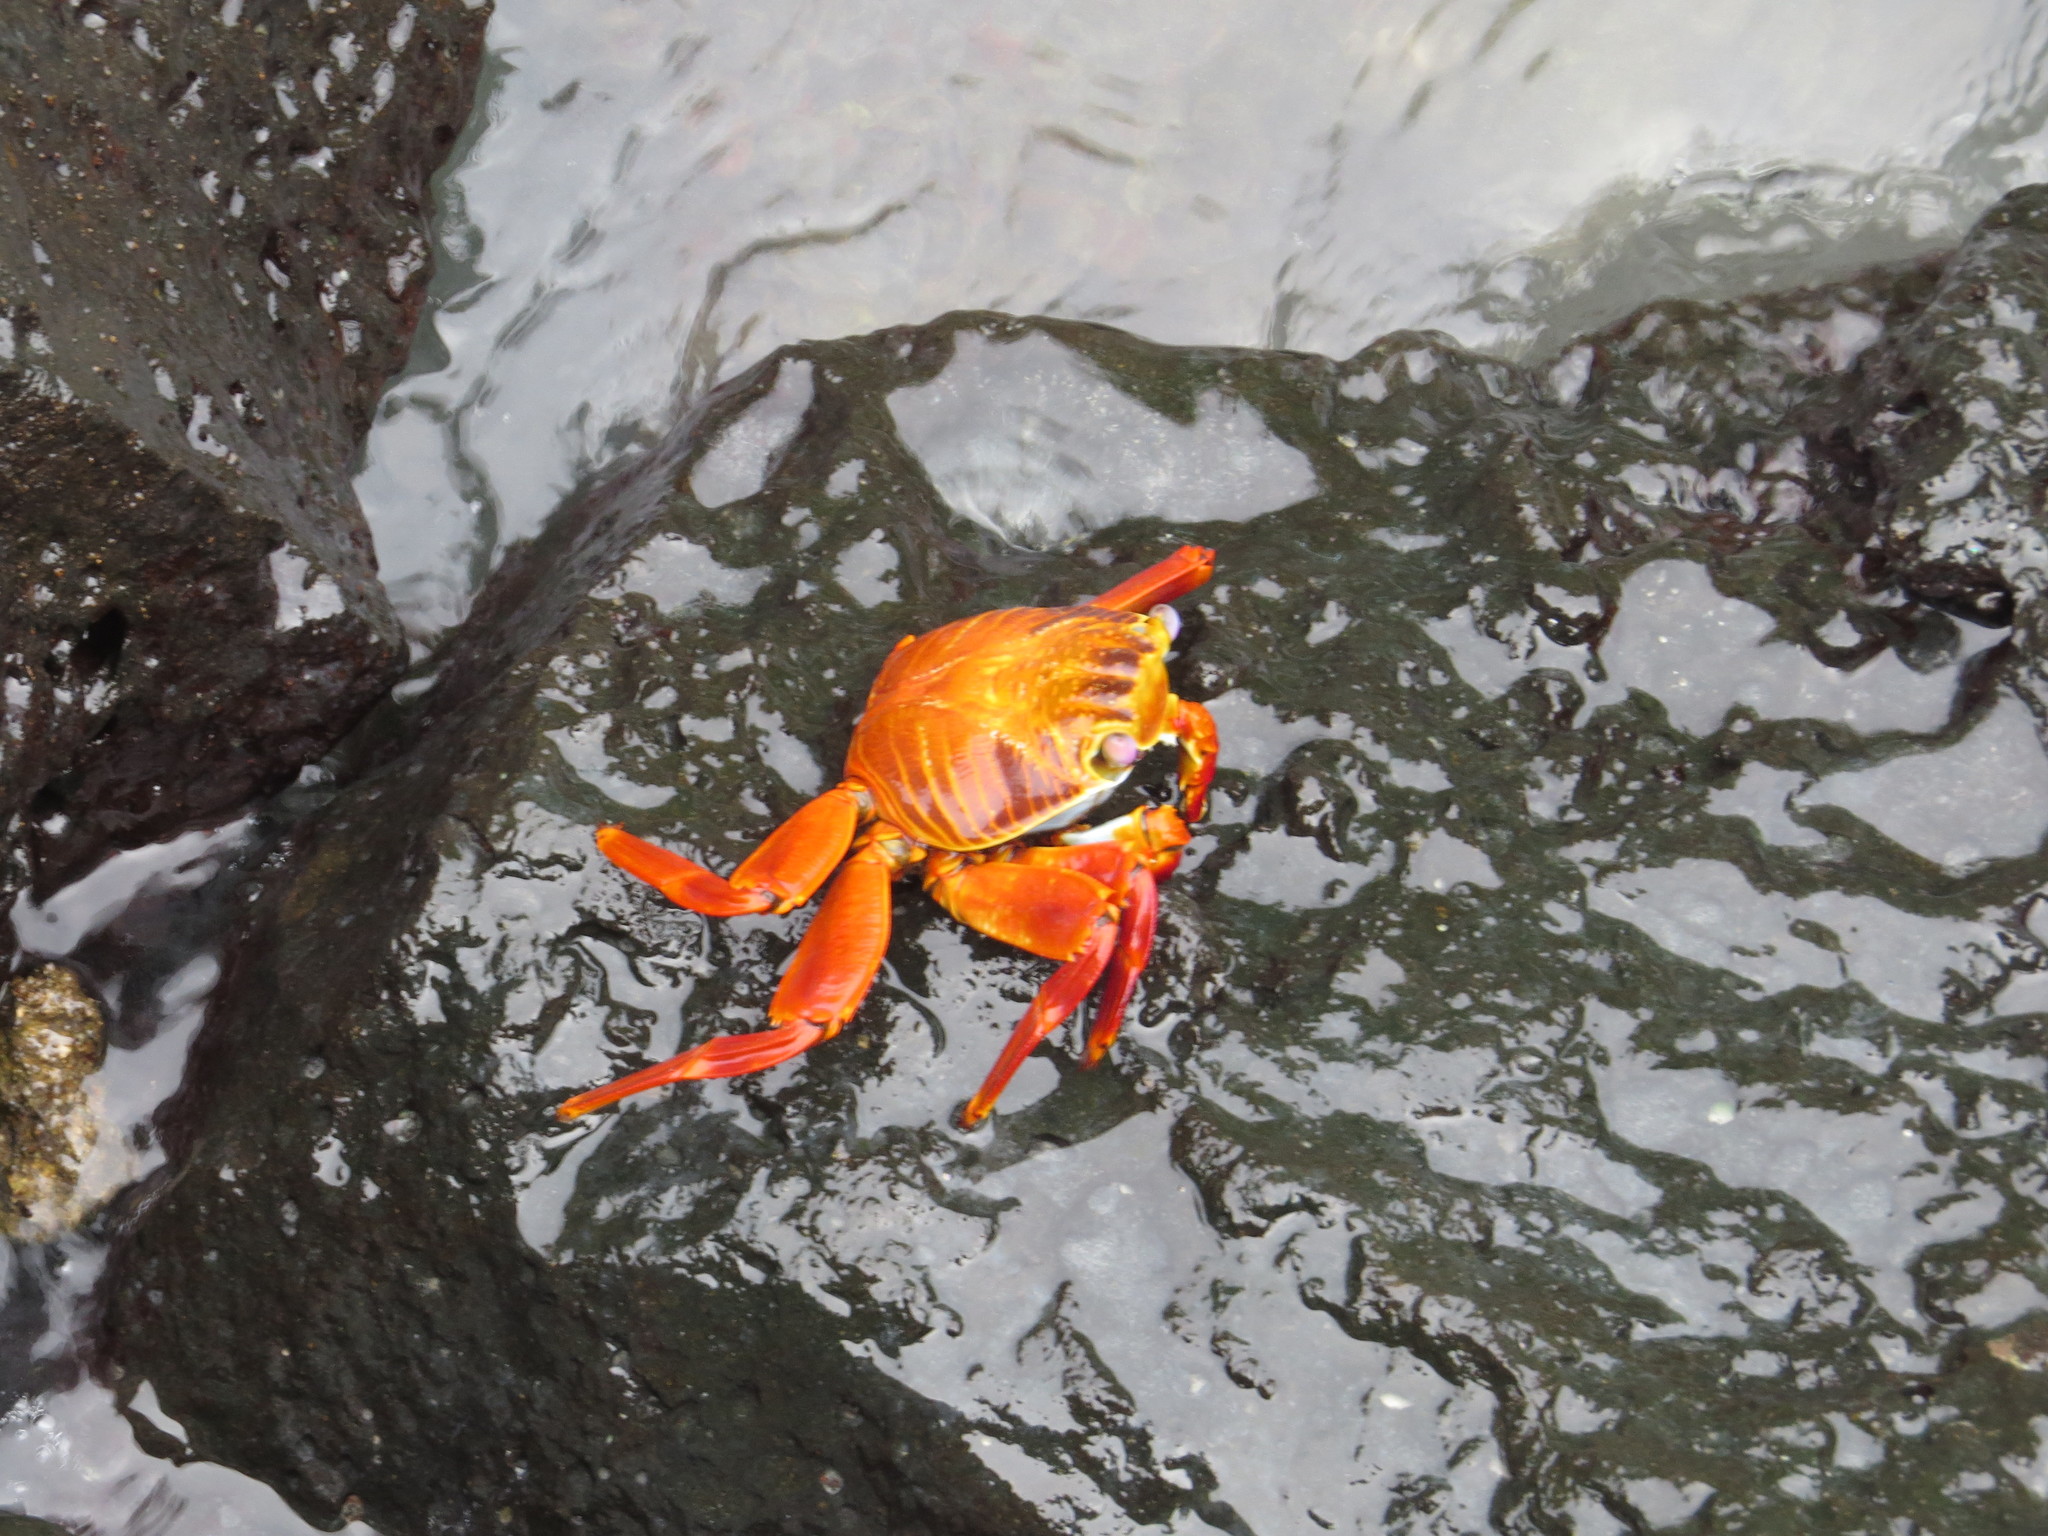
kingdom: Animalia
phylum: Arthropoda
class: Malacostraca
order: Decapoda
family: Grapsidae
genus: Grapsus
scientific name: Grapsus grapsus
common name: Sally lightfoot
